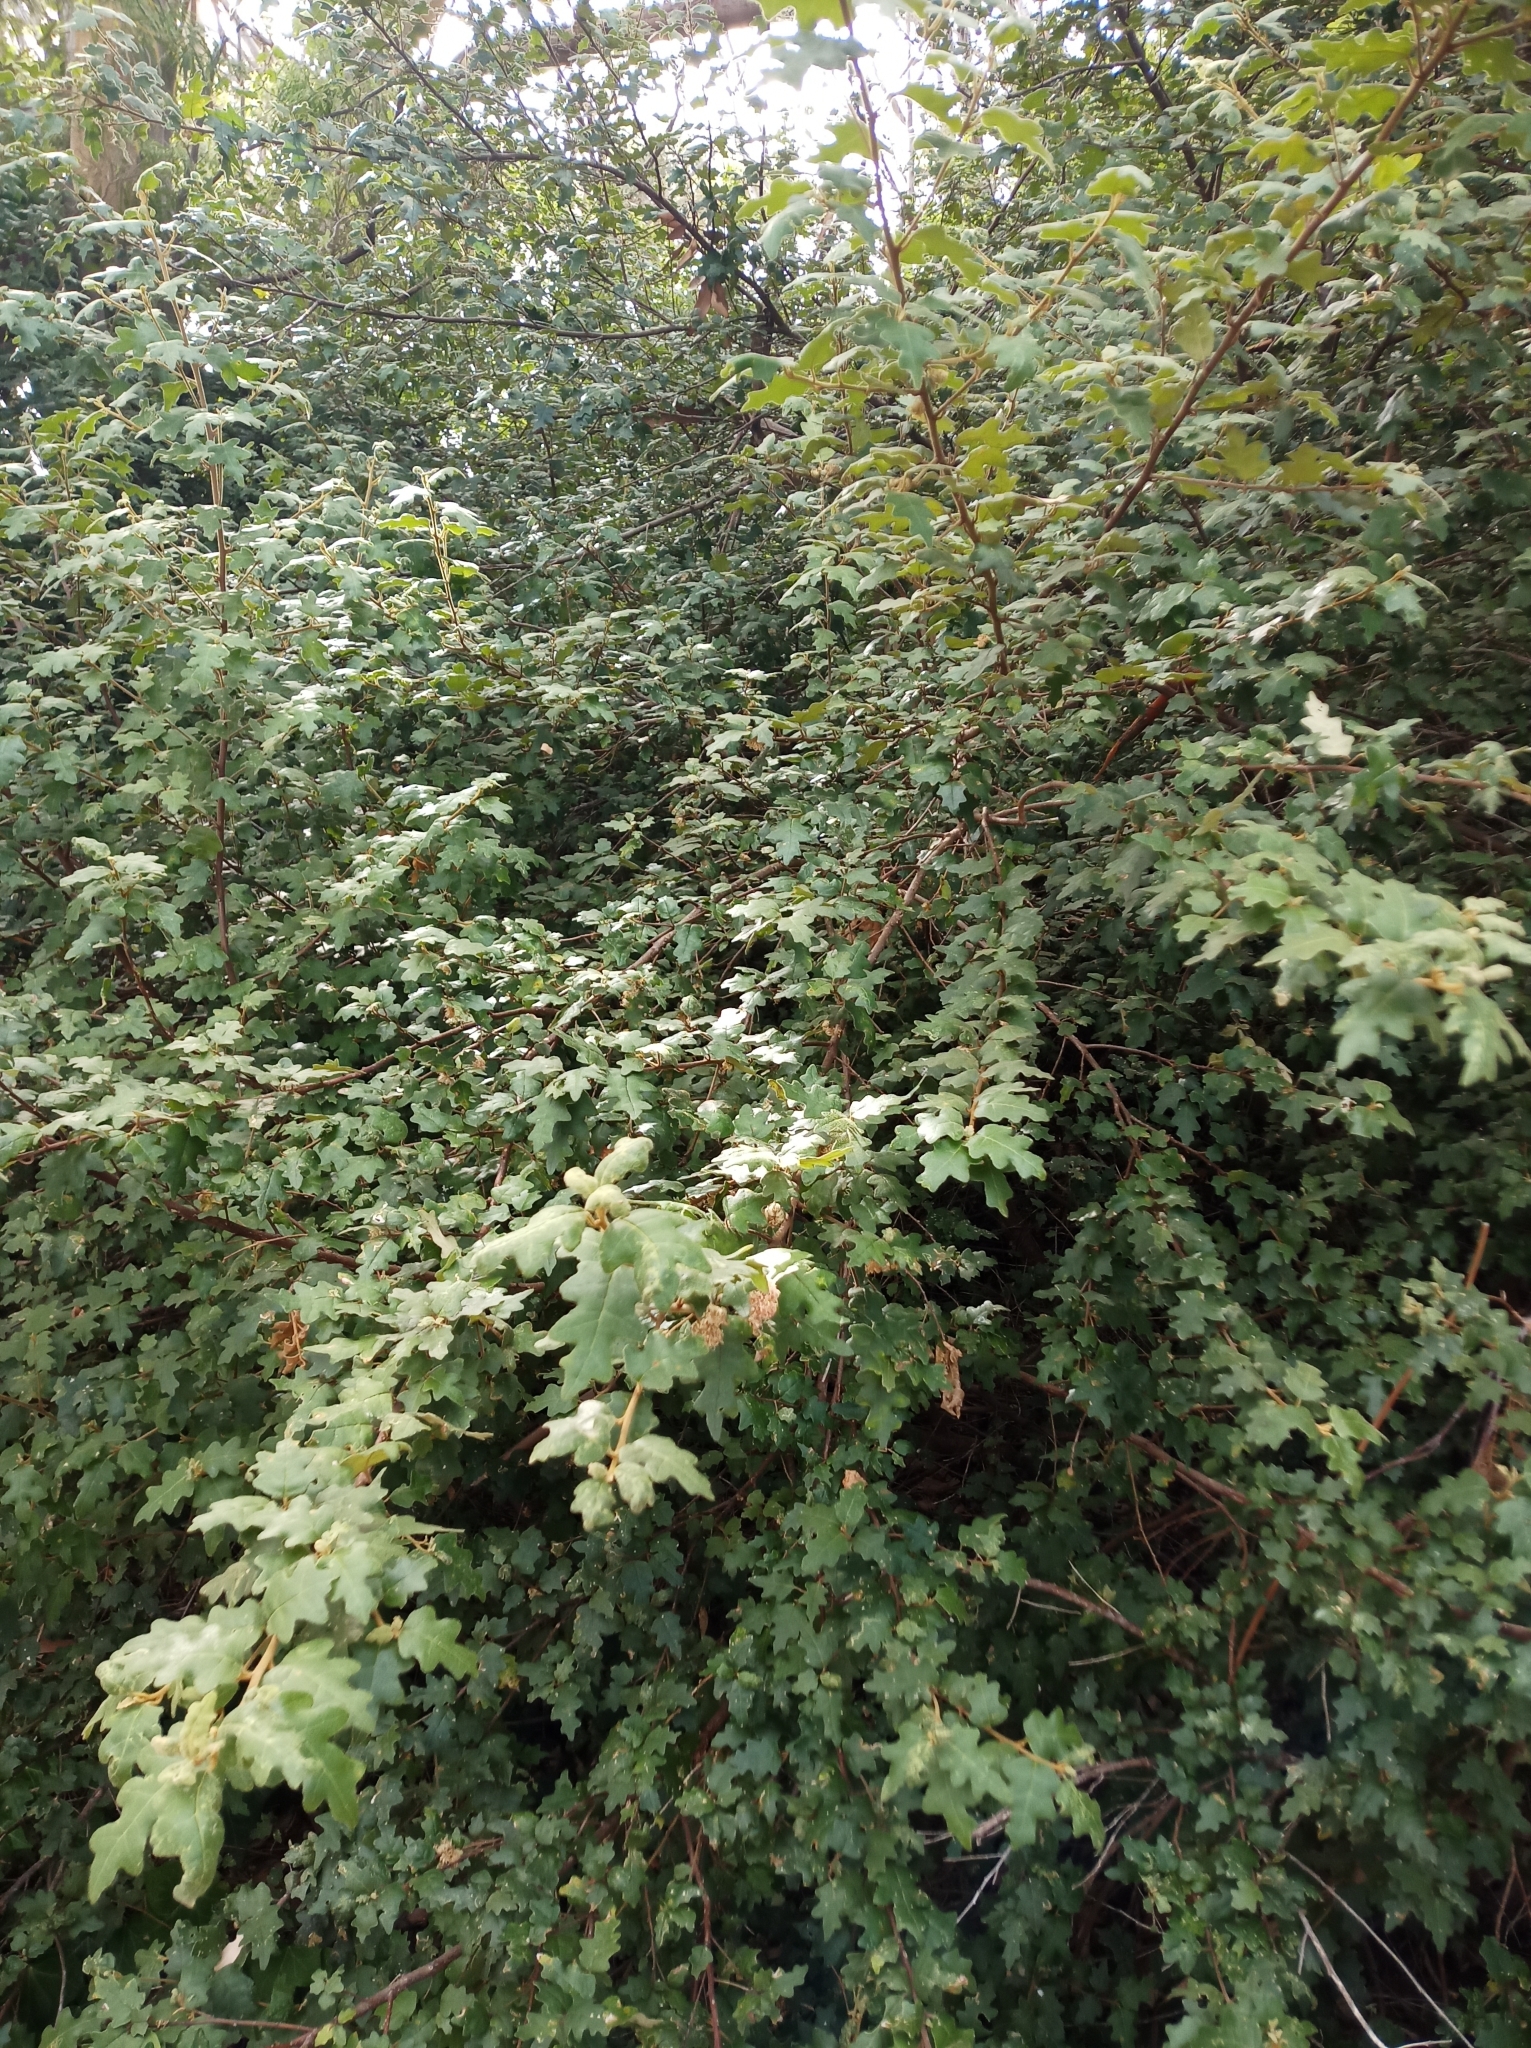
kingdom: Plantae
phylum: Tracheophyta
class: Magnoliopsida
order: Sapindales
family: Rutaceae
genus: Chorilaena
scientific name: Chorilaena quercifolia
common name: Wild hop
